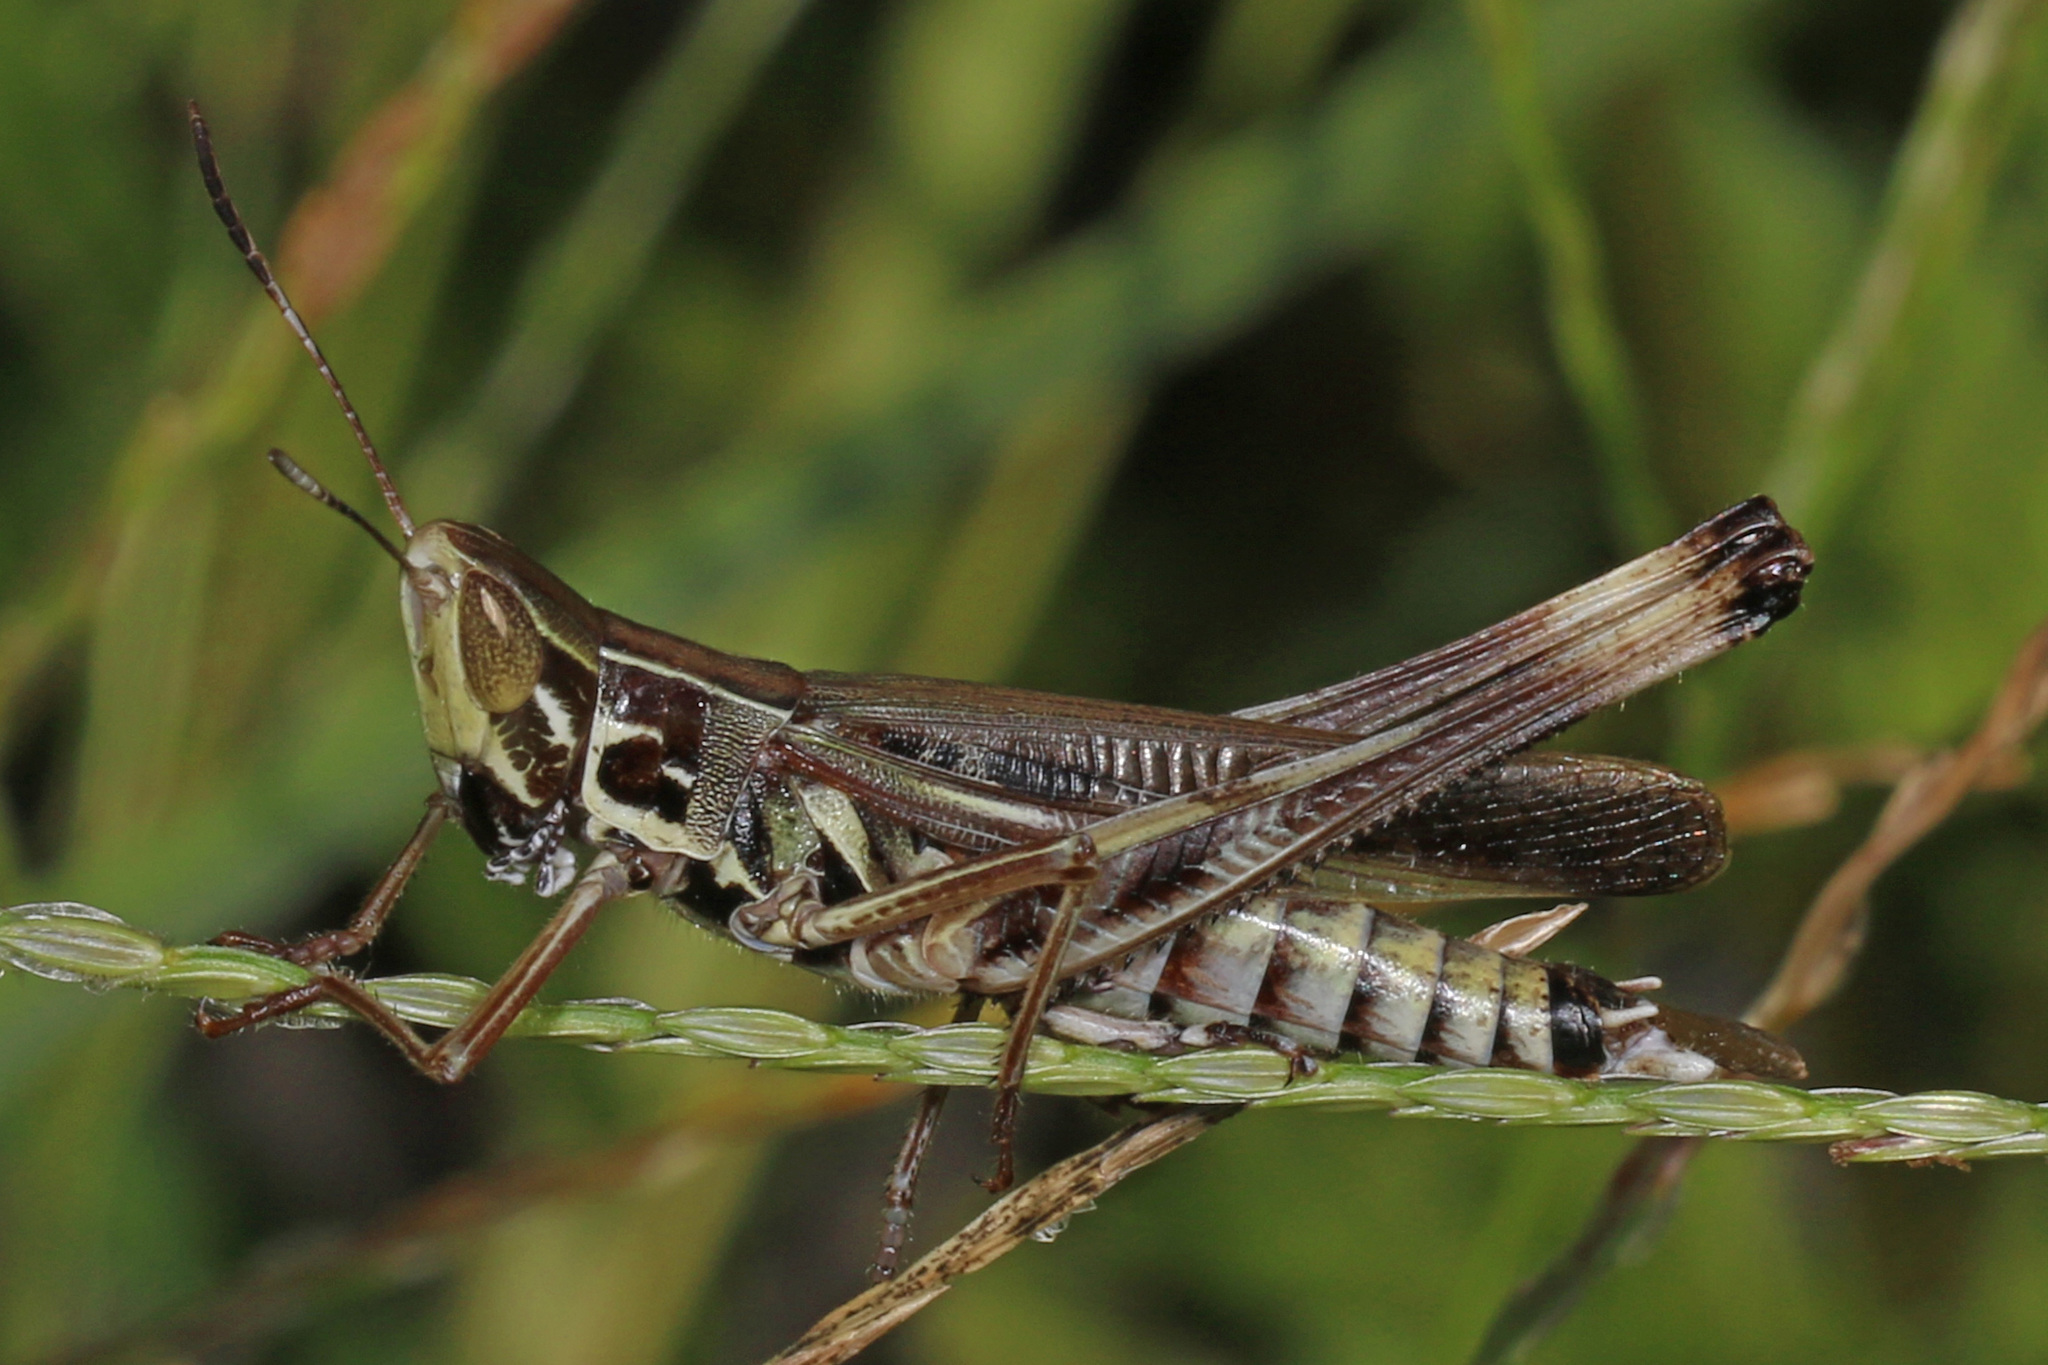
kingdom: Animalia
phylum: Arthropoda
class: Insecta
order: Orthoptera
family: Acrididae
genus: Syrbula
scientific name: Syrbula admirabilis
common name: Handsome grasshopper
